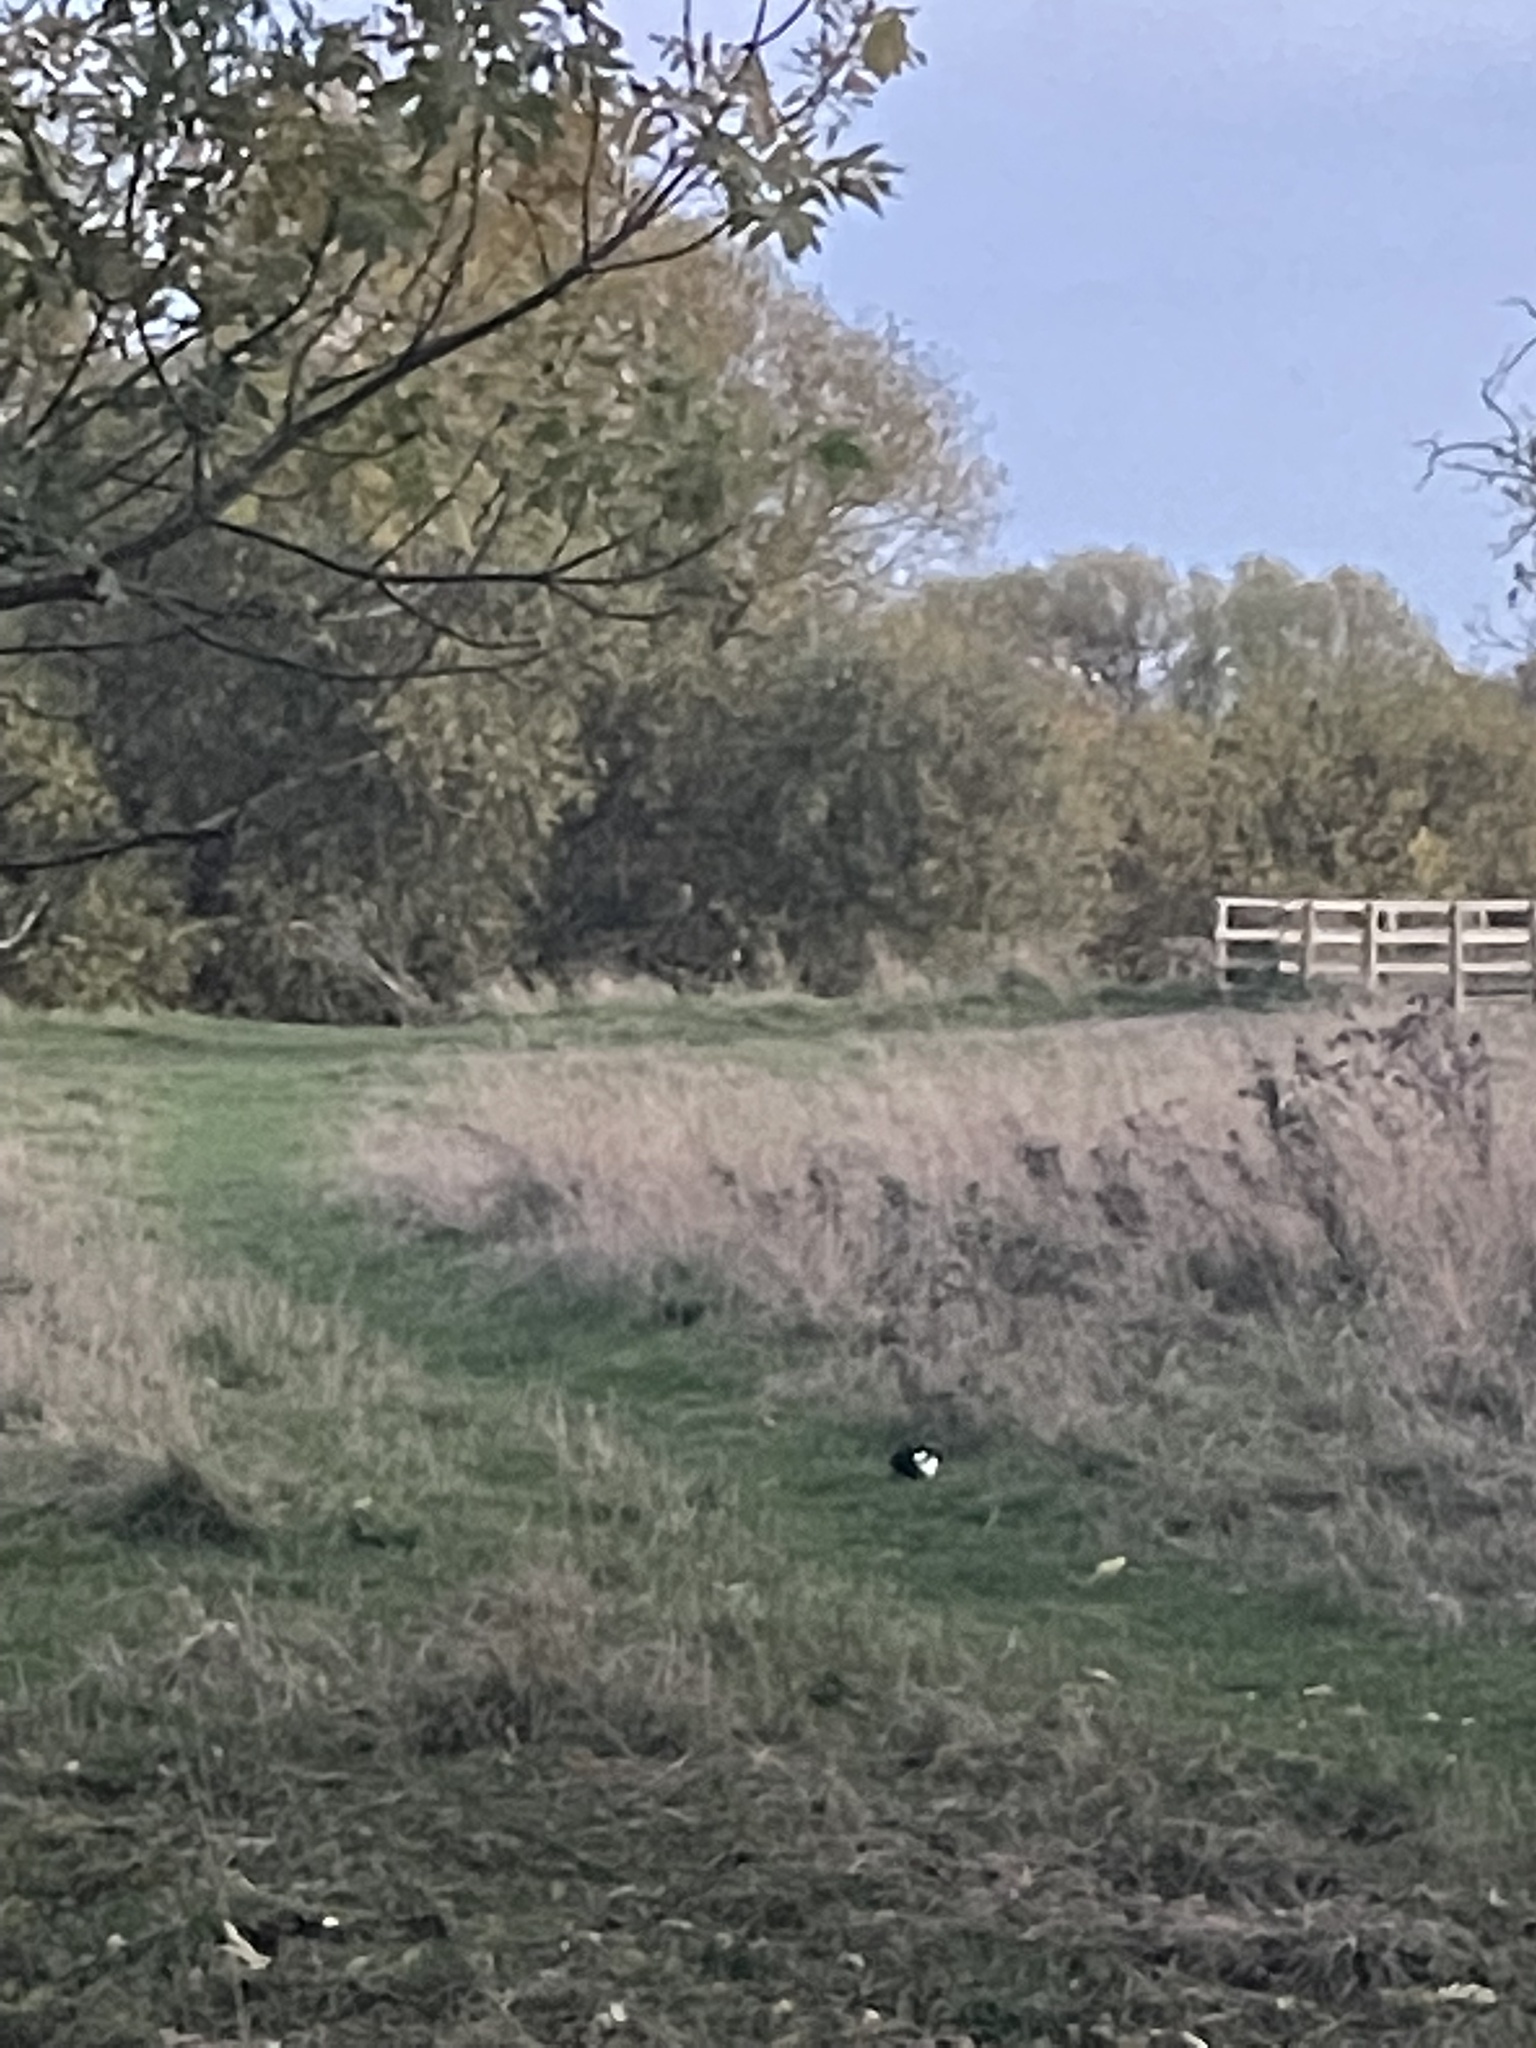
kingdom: Animalia
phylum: Chordata
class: Aves
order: Passeriformes
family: Corvidae
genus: Pica
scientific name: Pica pica
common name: Eurasian magpie
